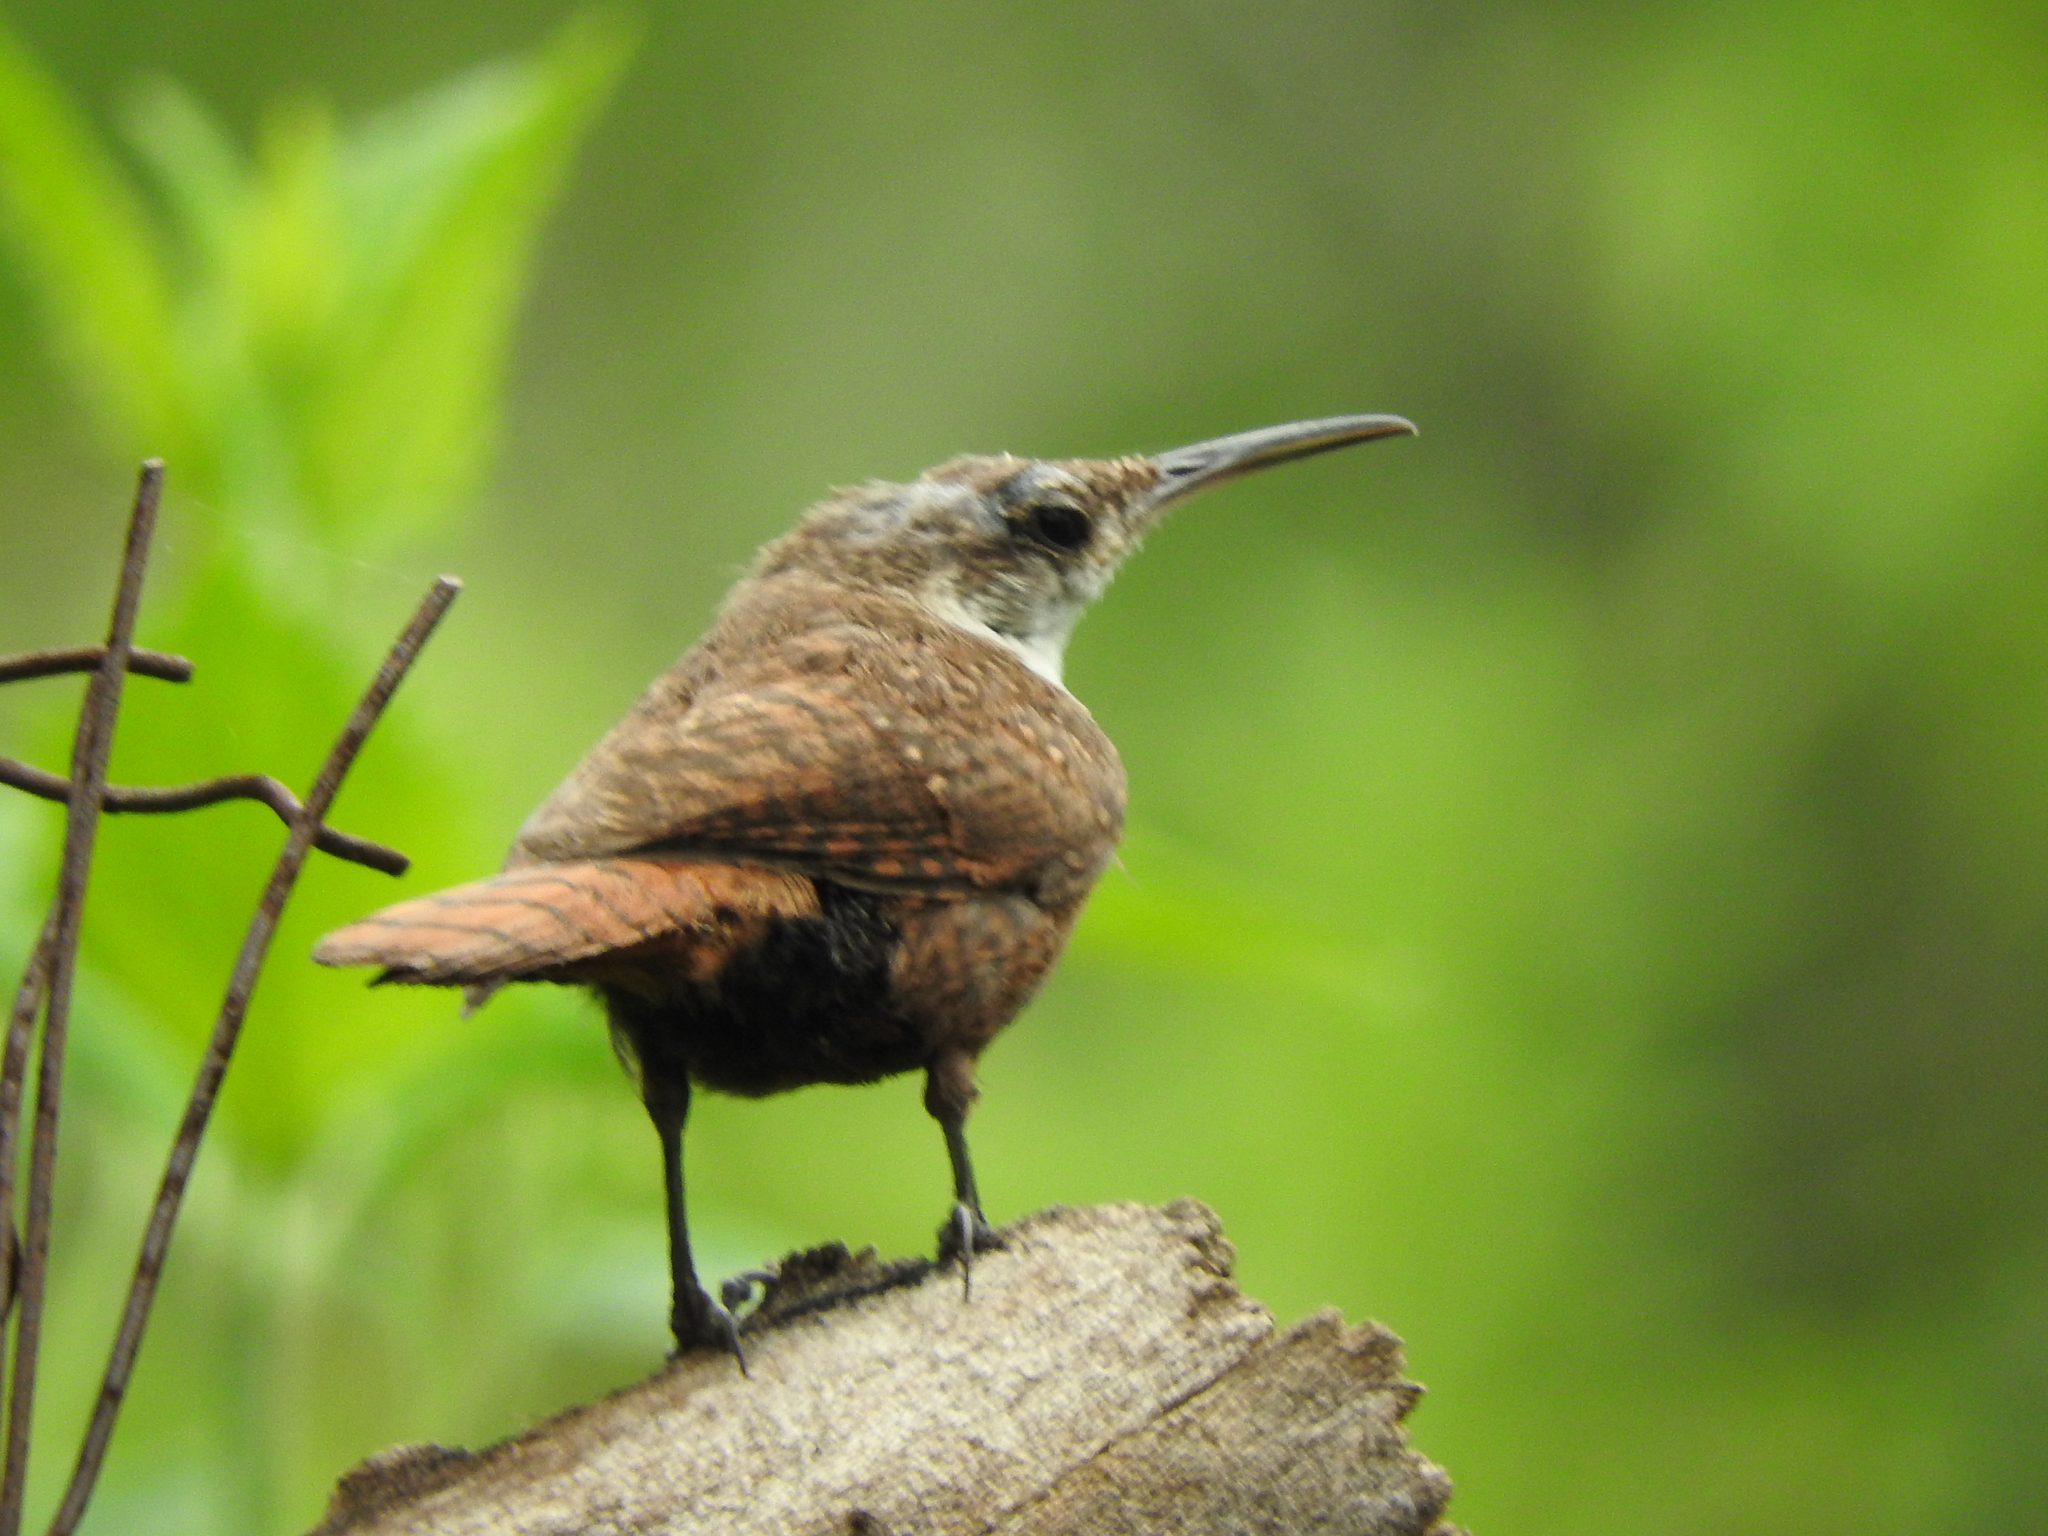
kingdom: Animalia
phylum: Chordata
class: Aves
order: Passeriformes
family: Troglodytidae
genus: Catherpes
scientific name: Catherpes mexicanus
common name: Canyon wren
